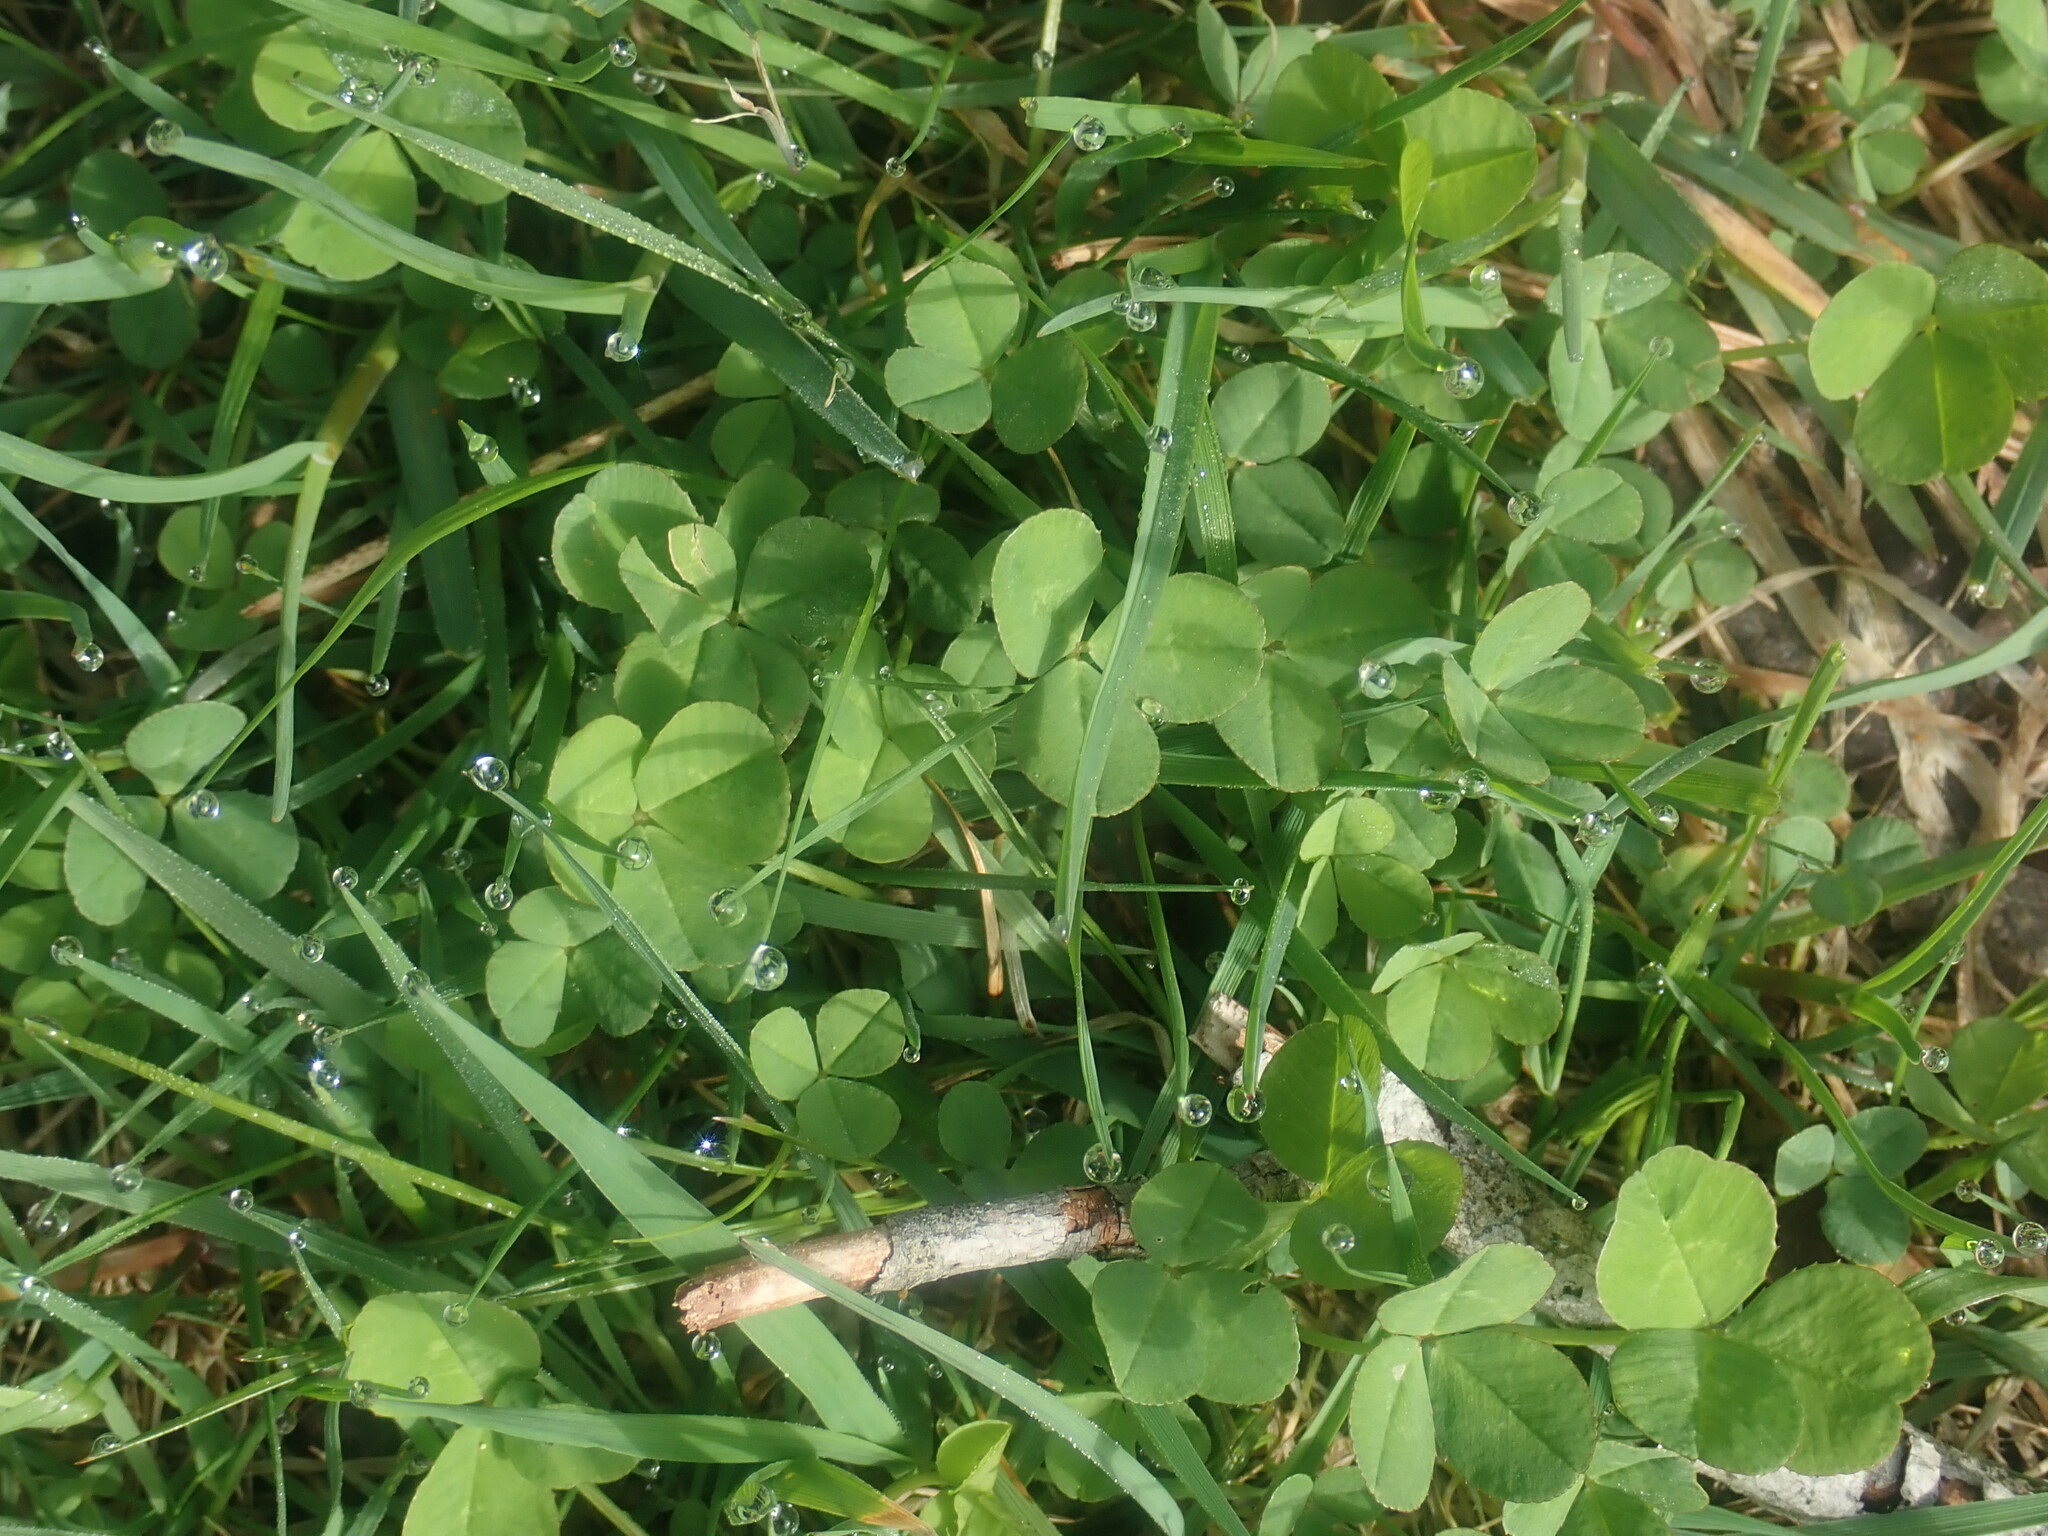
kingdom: Plantae
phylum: Tracheophyta
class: Magnoliopsida
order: Fabales
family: Fabaceae
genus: Trifolium
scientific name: Trifolium repens
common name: White clover
